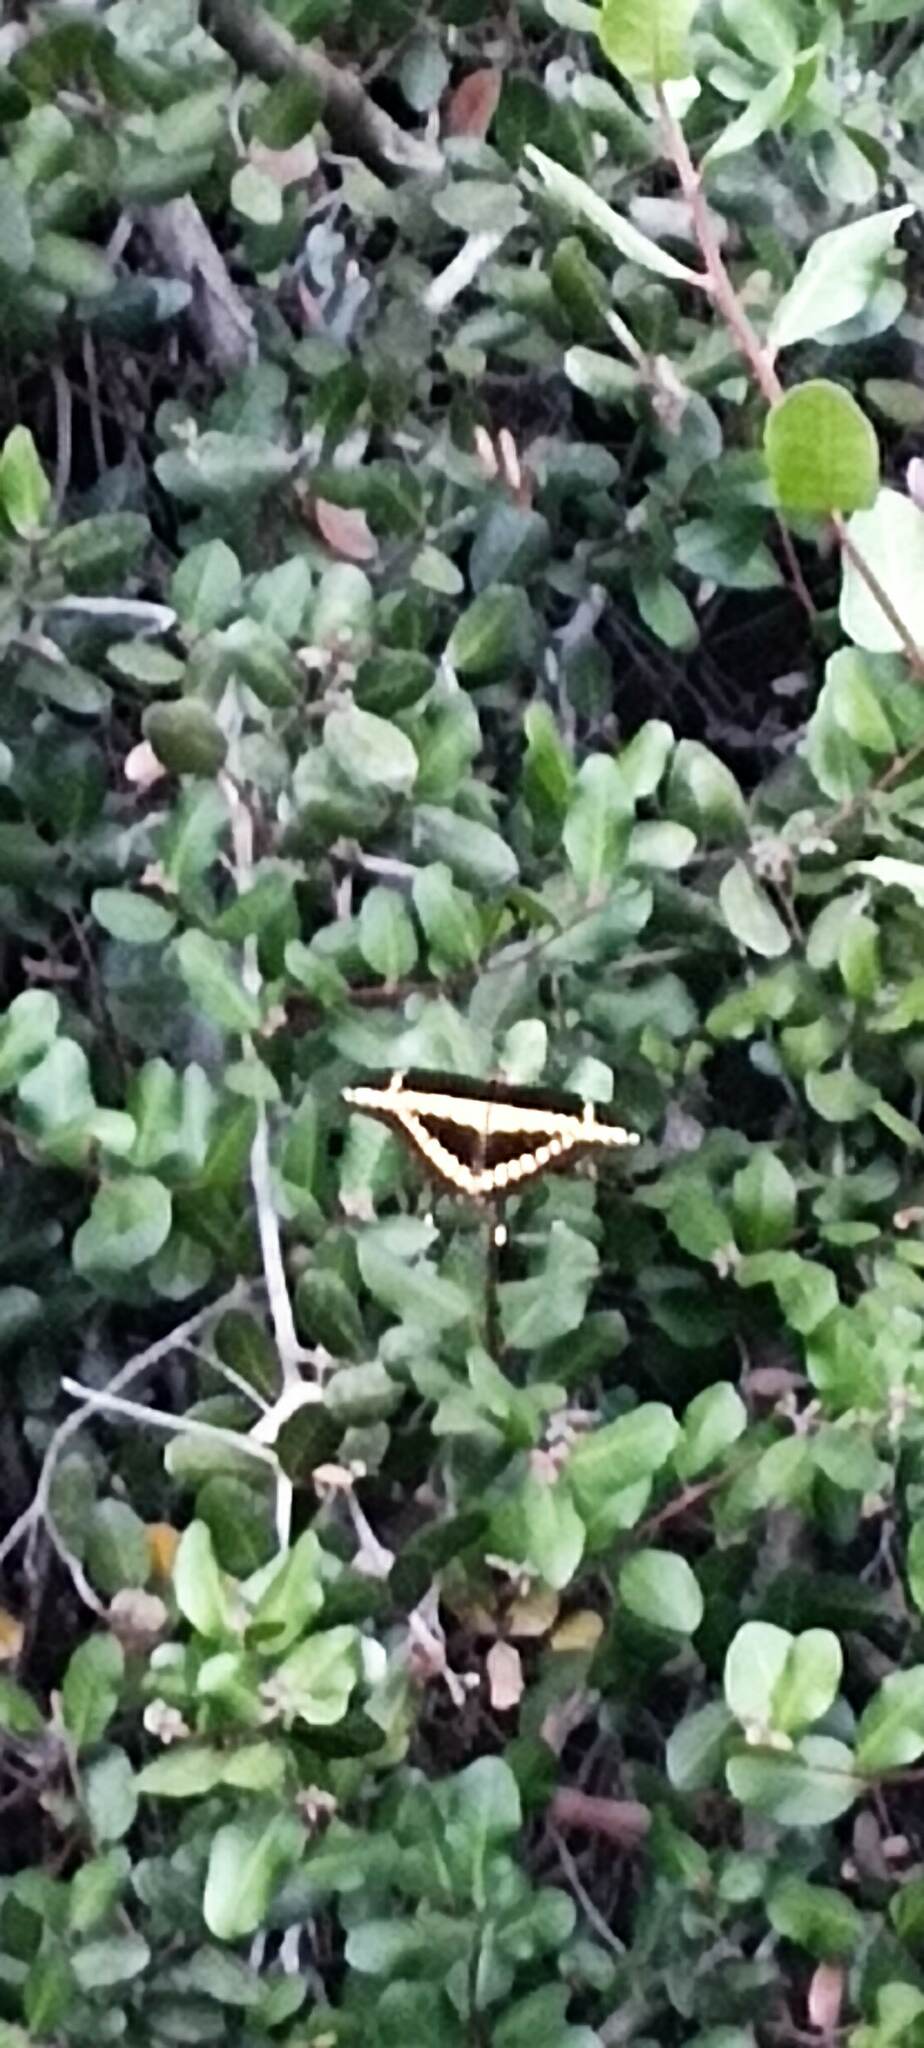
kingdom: Animalia
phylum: Arthropoda
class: Insecta
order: Lepidoptera
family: Papilionidae
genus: Papilio
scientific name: Papilio rumiko
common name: Western giant swallowtail
